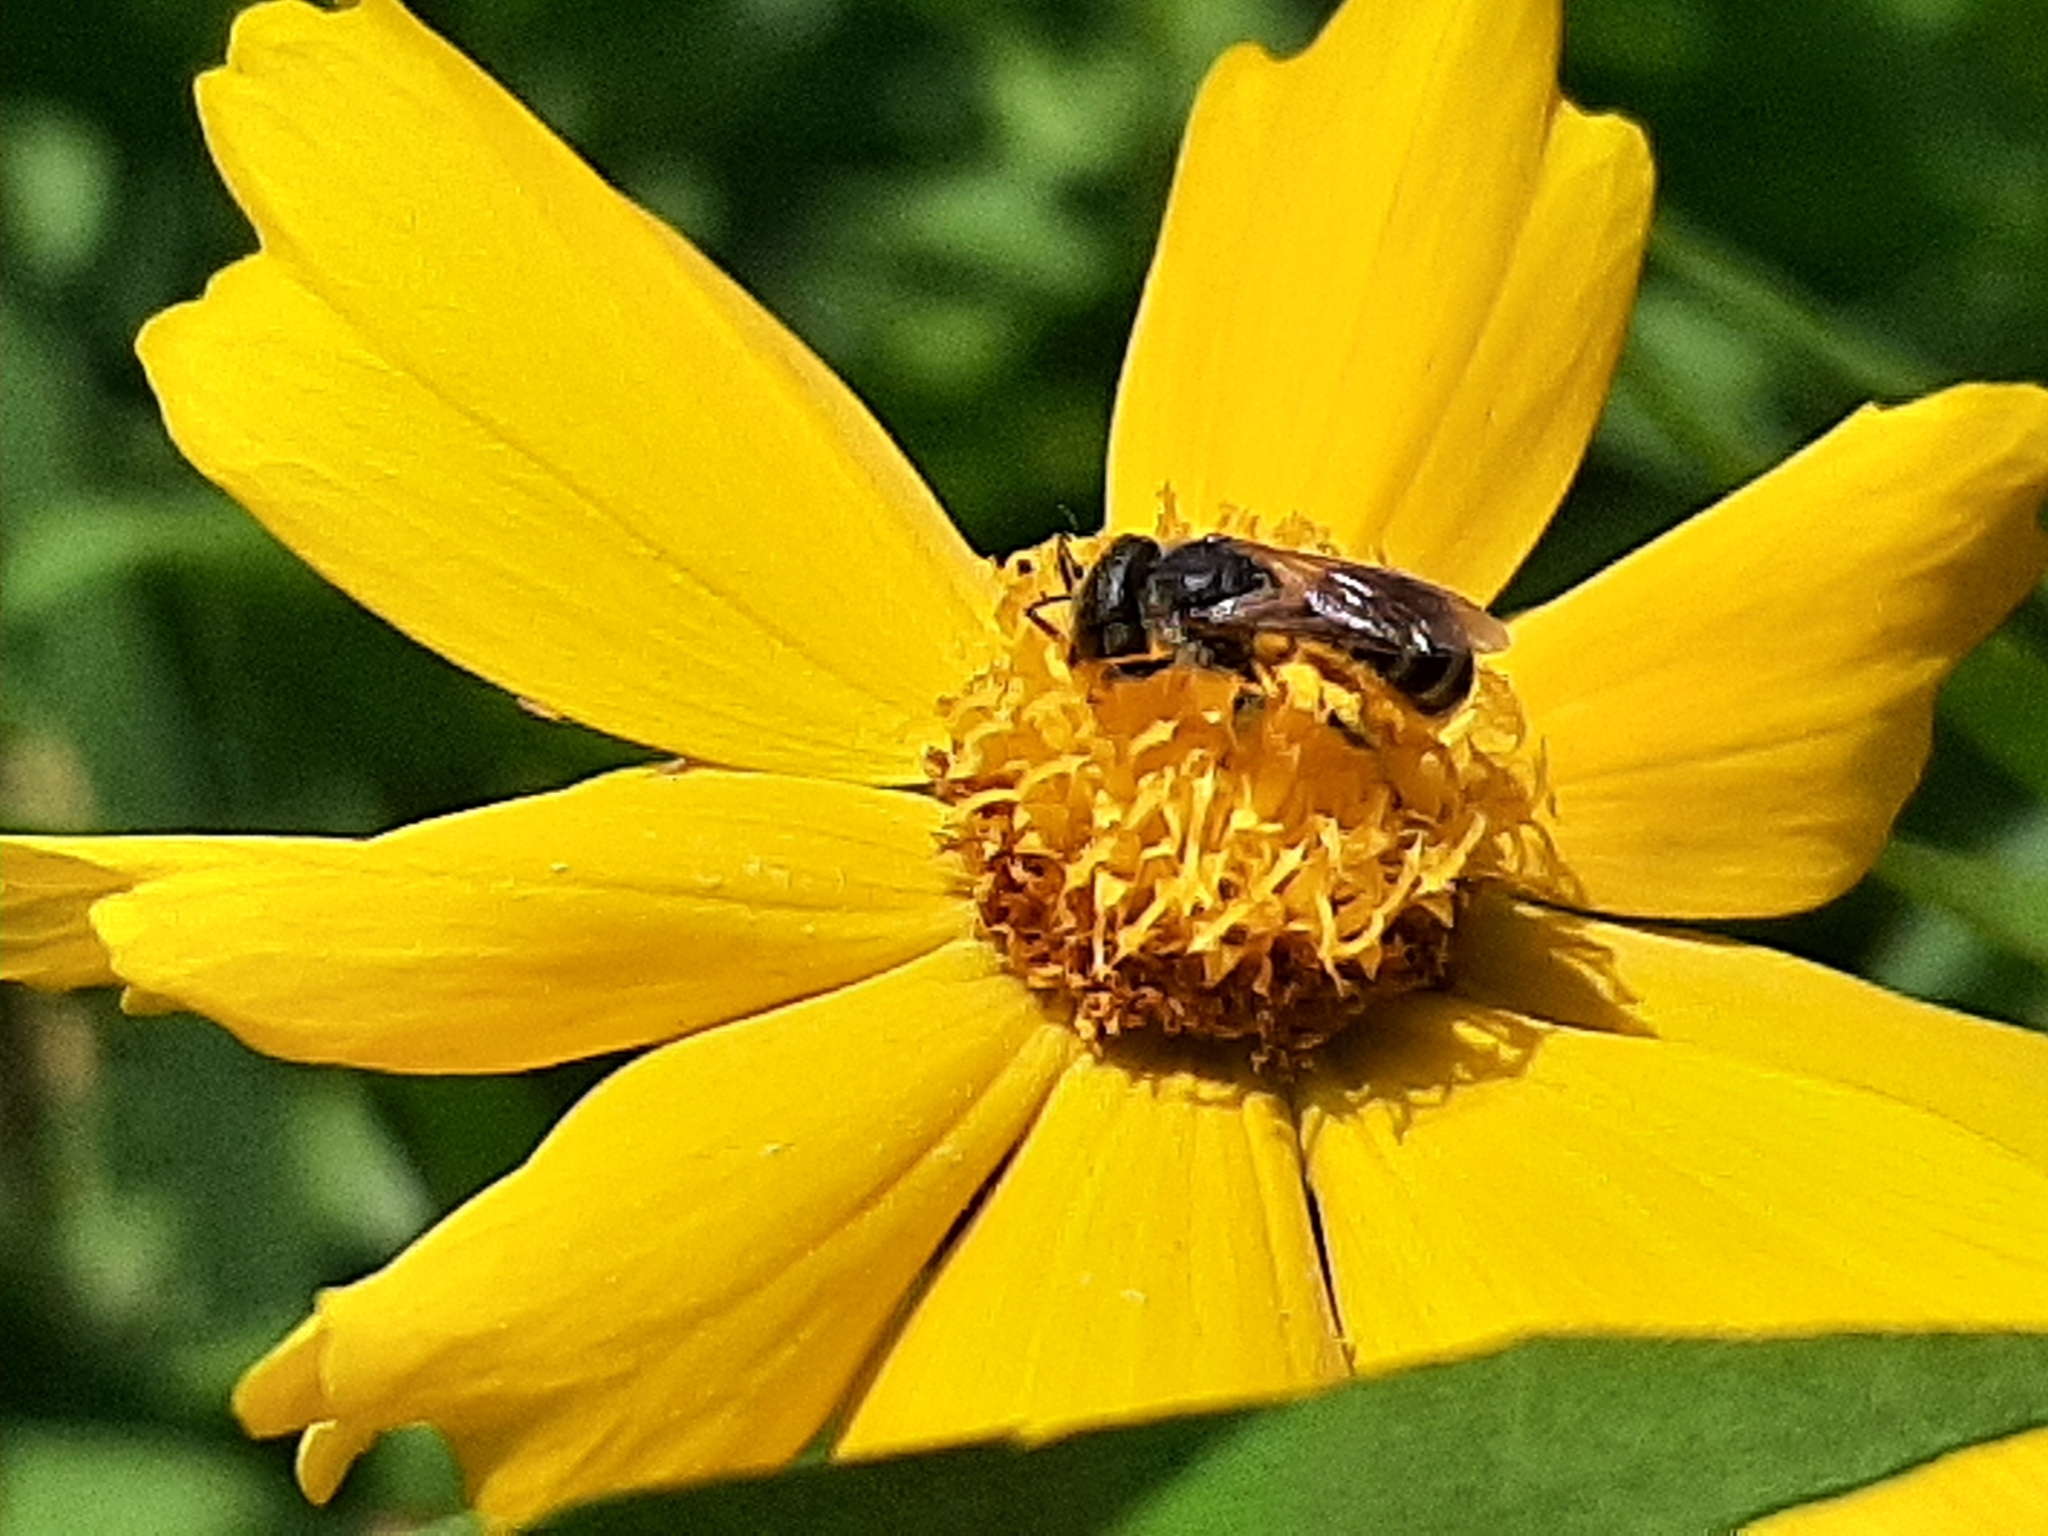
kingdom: Animalia
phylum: Arthropoda
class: Insecta
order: Hymenoptera
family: Halictidae
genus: Halictus
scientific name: Halictus ligatus
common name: Ligated furrow bee
